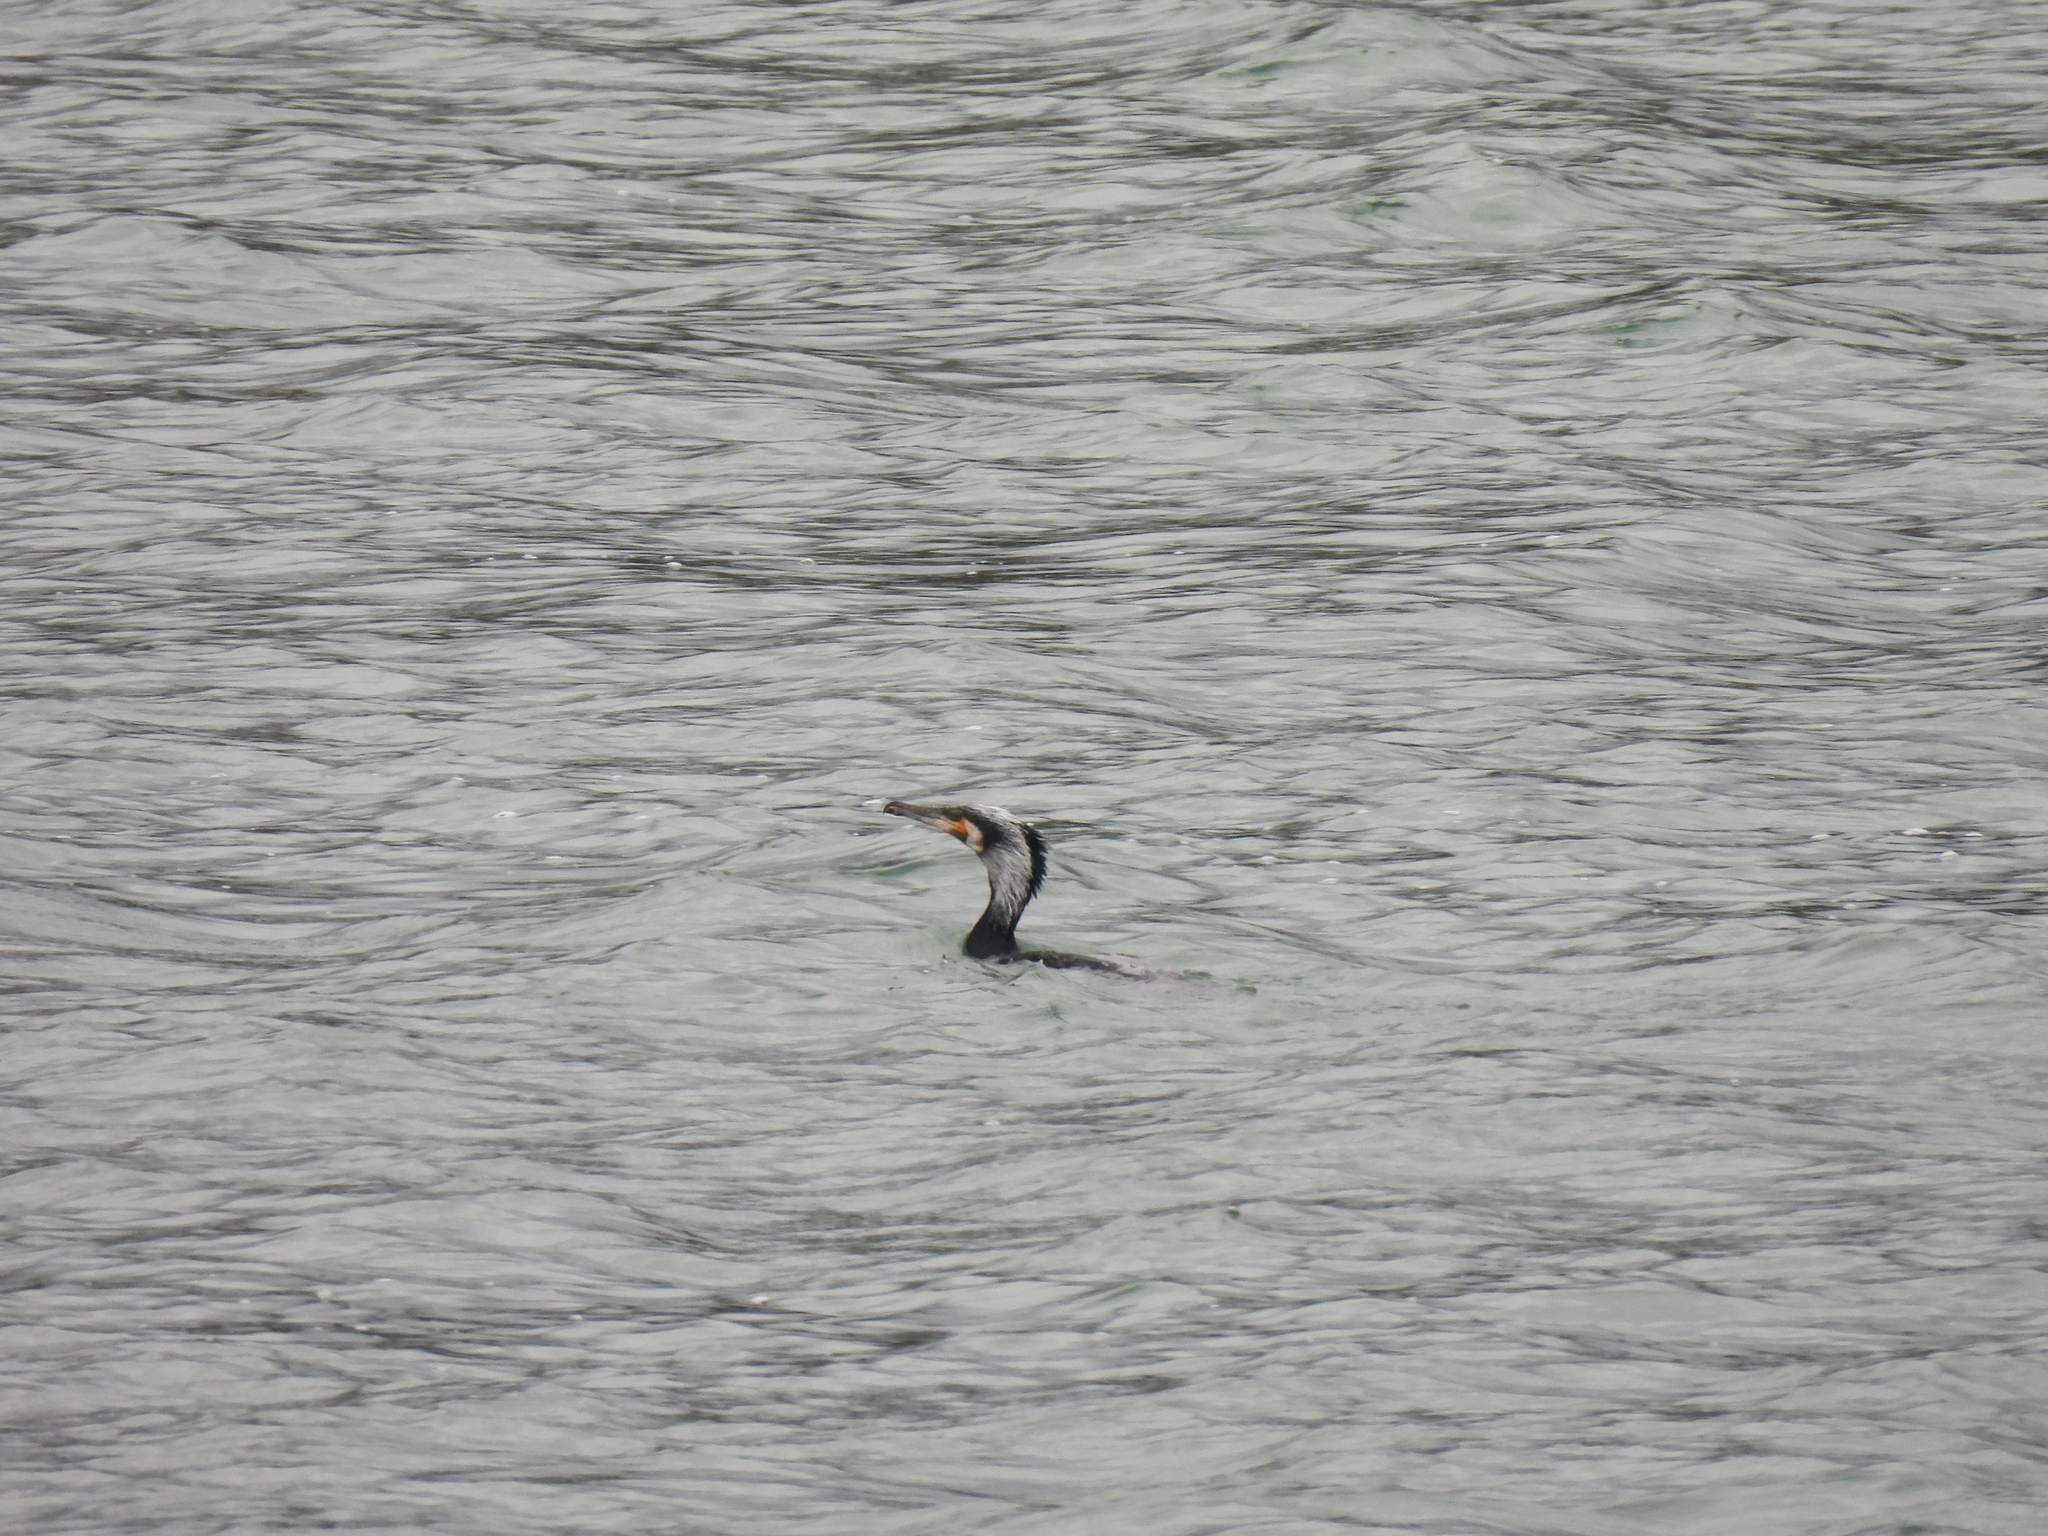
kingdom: Animalia
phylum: Chordata
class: Aves
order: Suliformes
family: Phalacrocoracidae
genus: Phalacrocorax
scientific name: Phalacrocorax carbo
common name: Great cormorant
